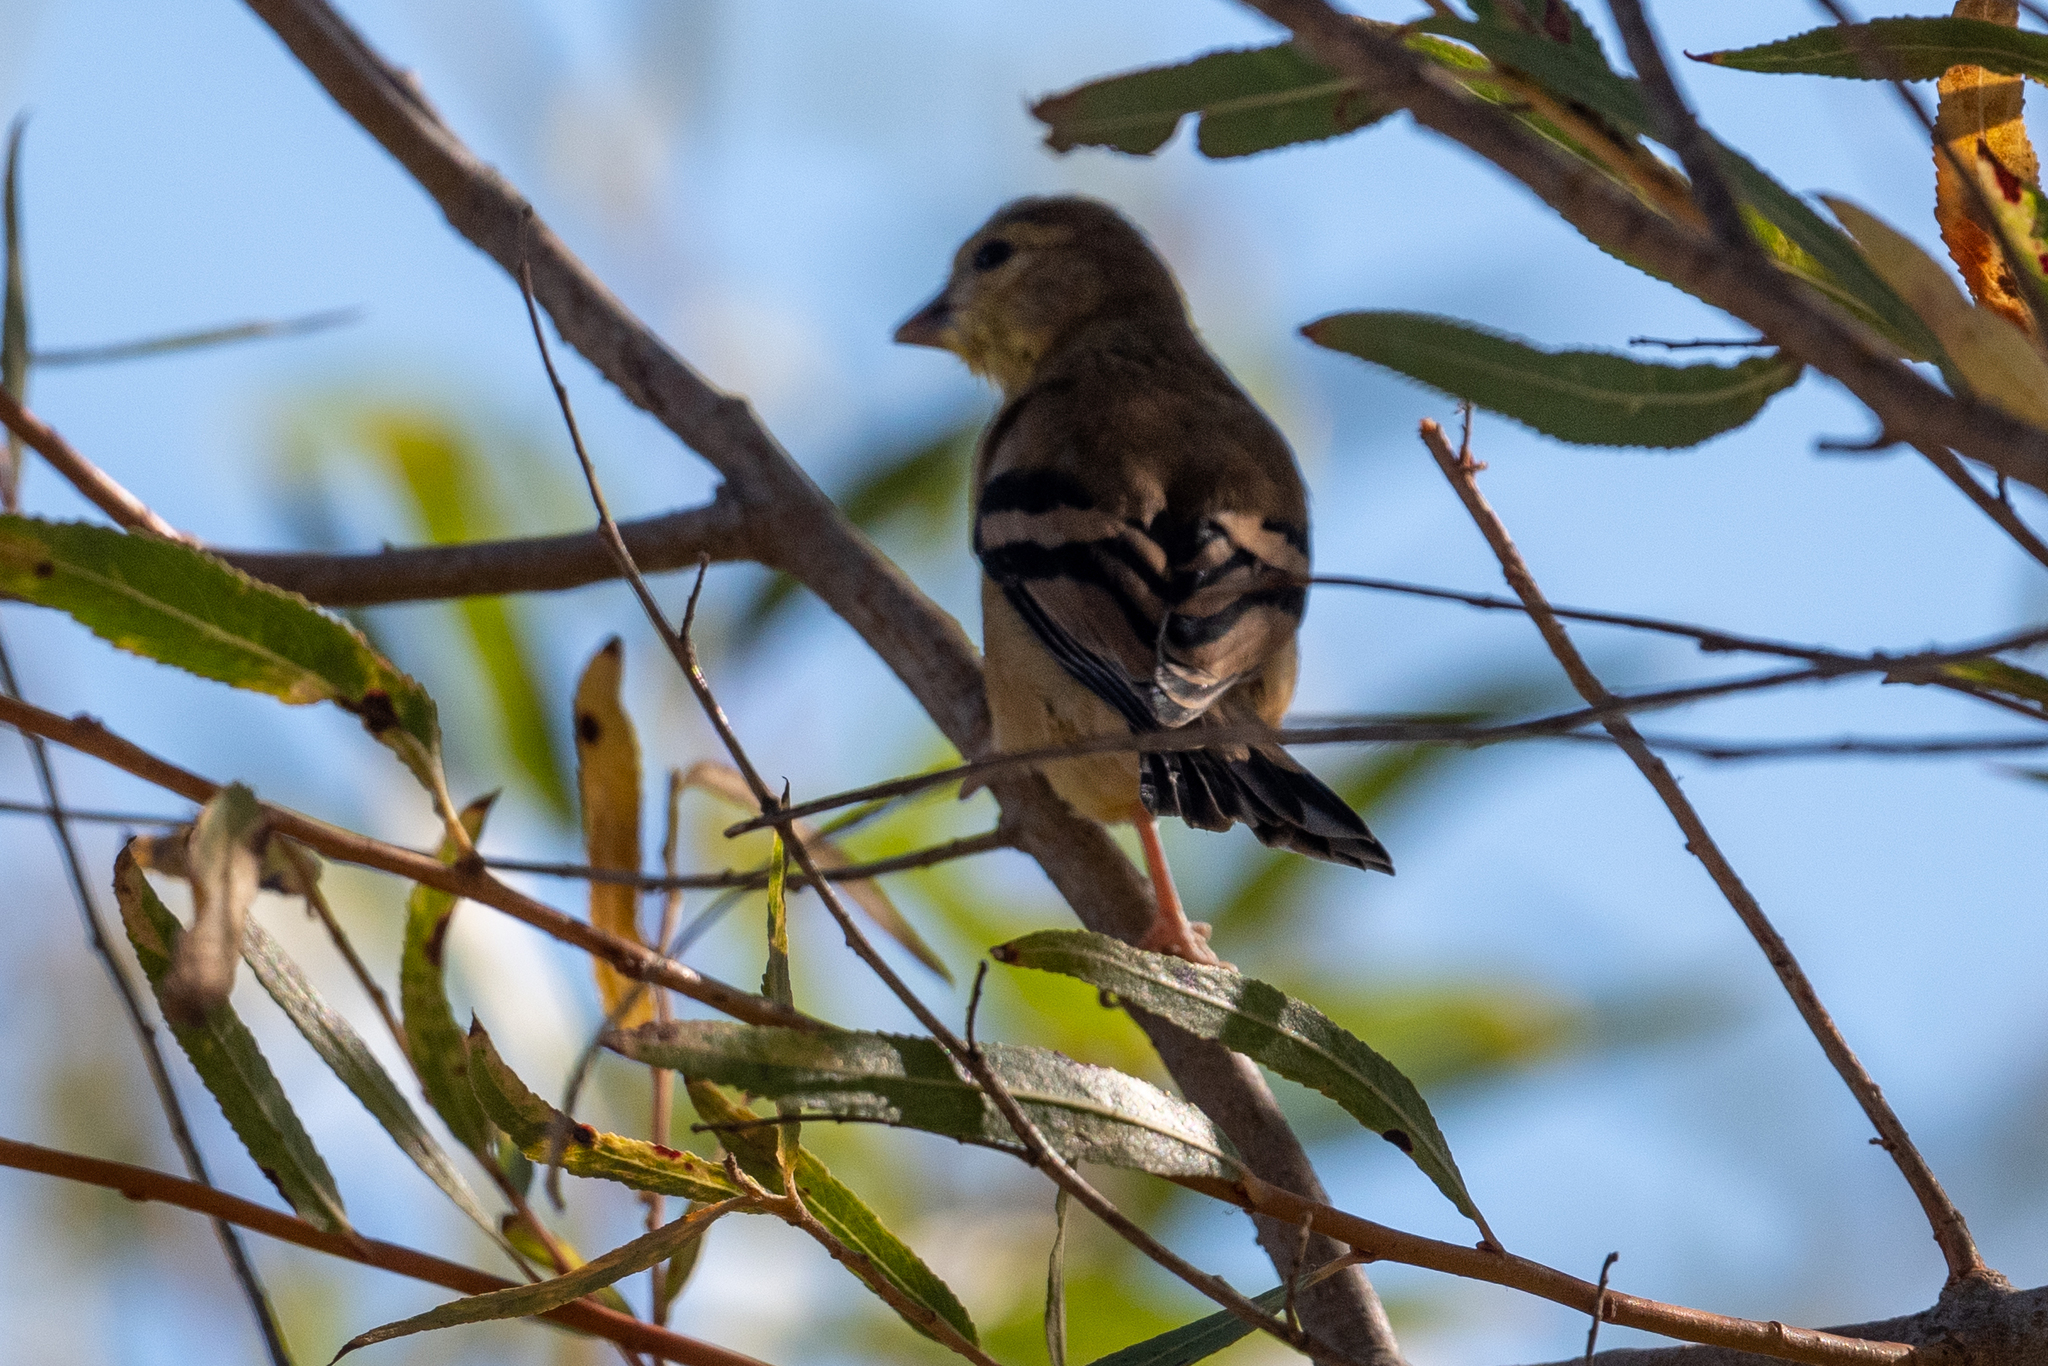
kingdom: Animalia
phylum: Chordata
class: Aves
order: Passeriformes
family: Fringillidae
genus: Spinus
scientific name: Spinus tristis
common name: American goldfinch
